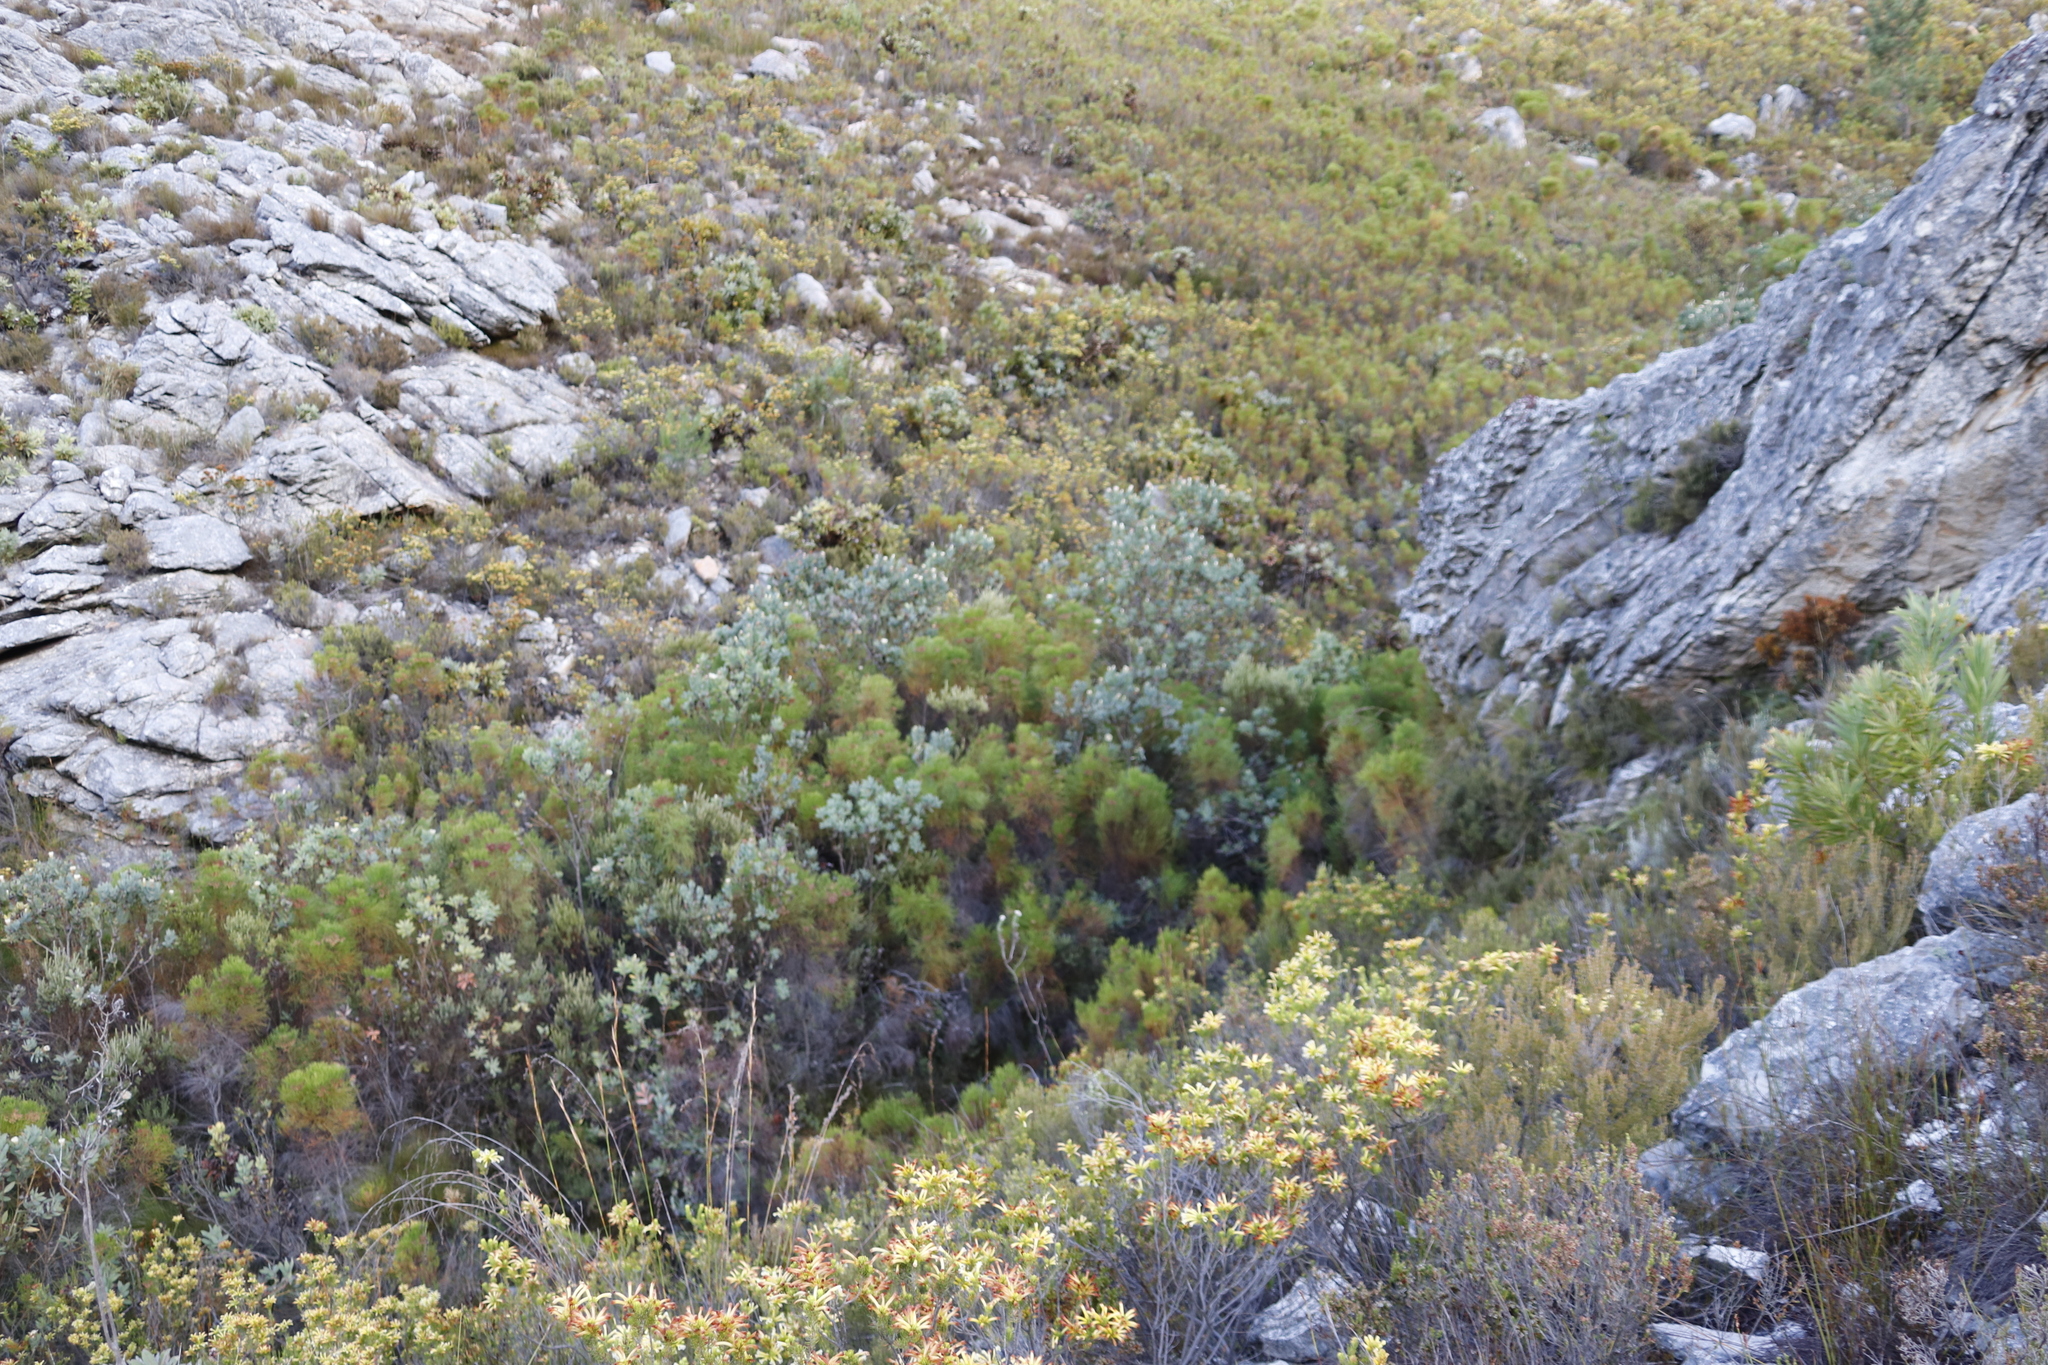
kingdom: Plantae
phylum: Tracheophyta
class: Magnoliopsida
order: Proteales
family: Proteaceae
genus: Protea
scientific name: Protea lacticolor
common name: Hottentot sugarbush
